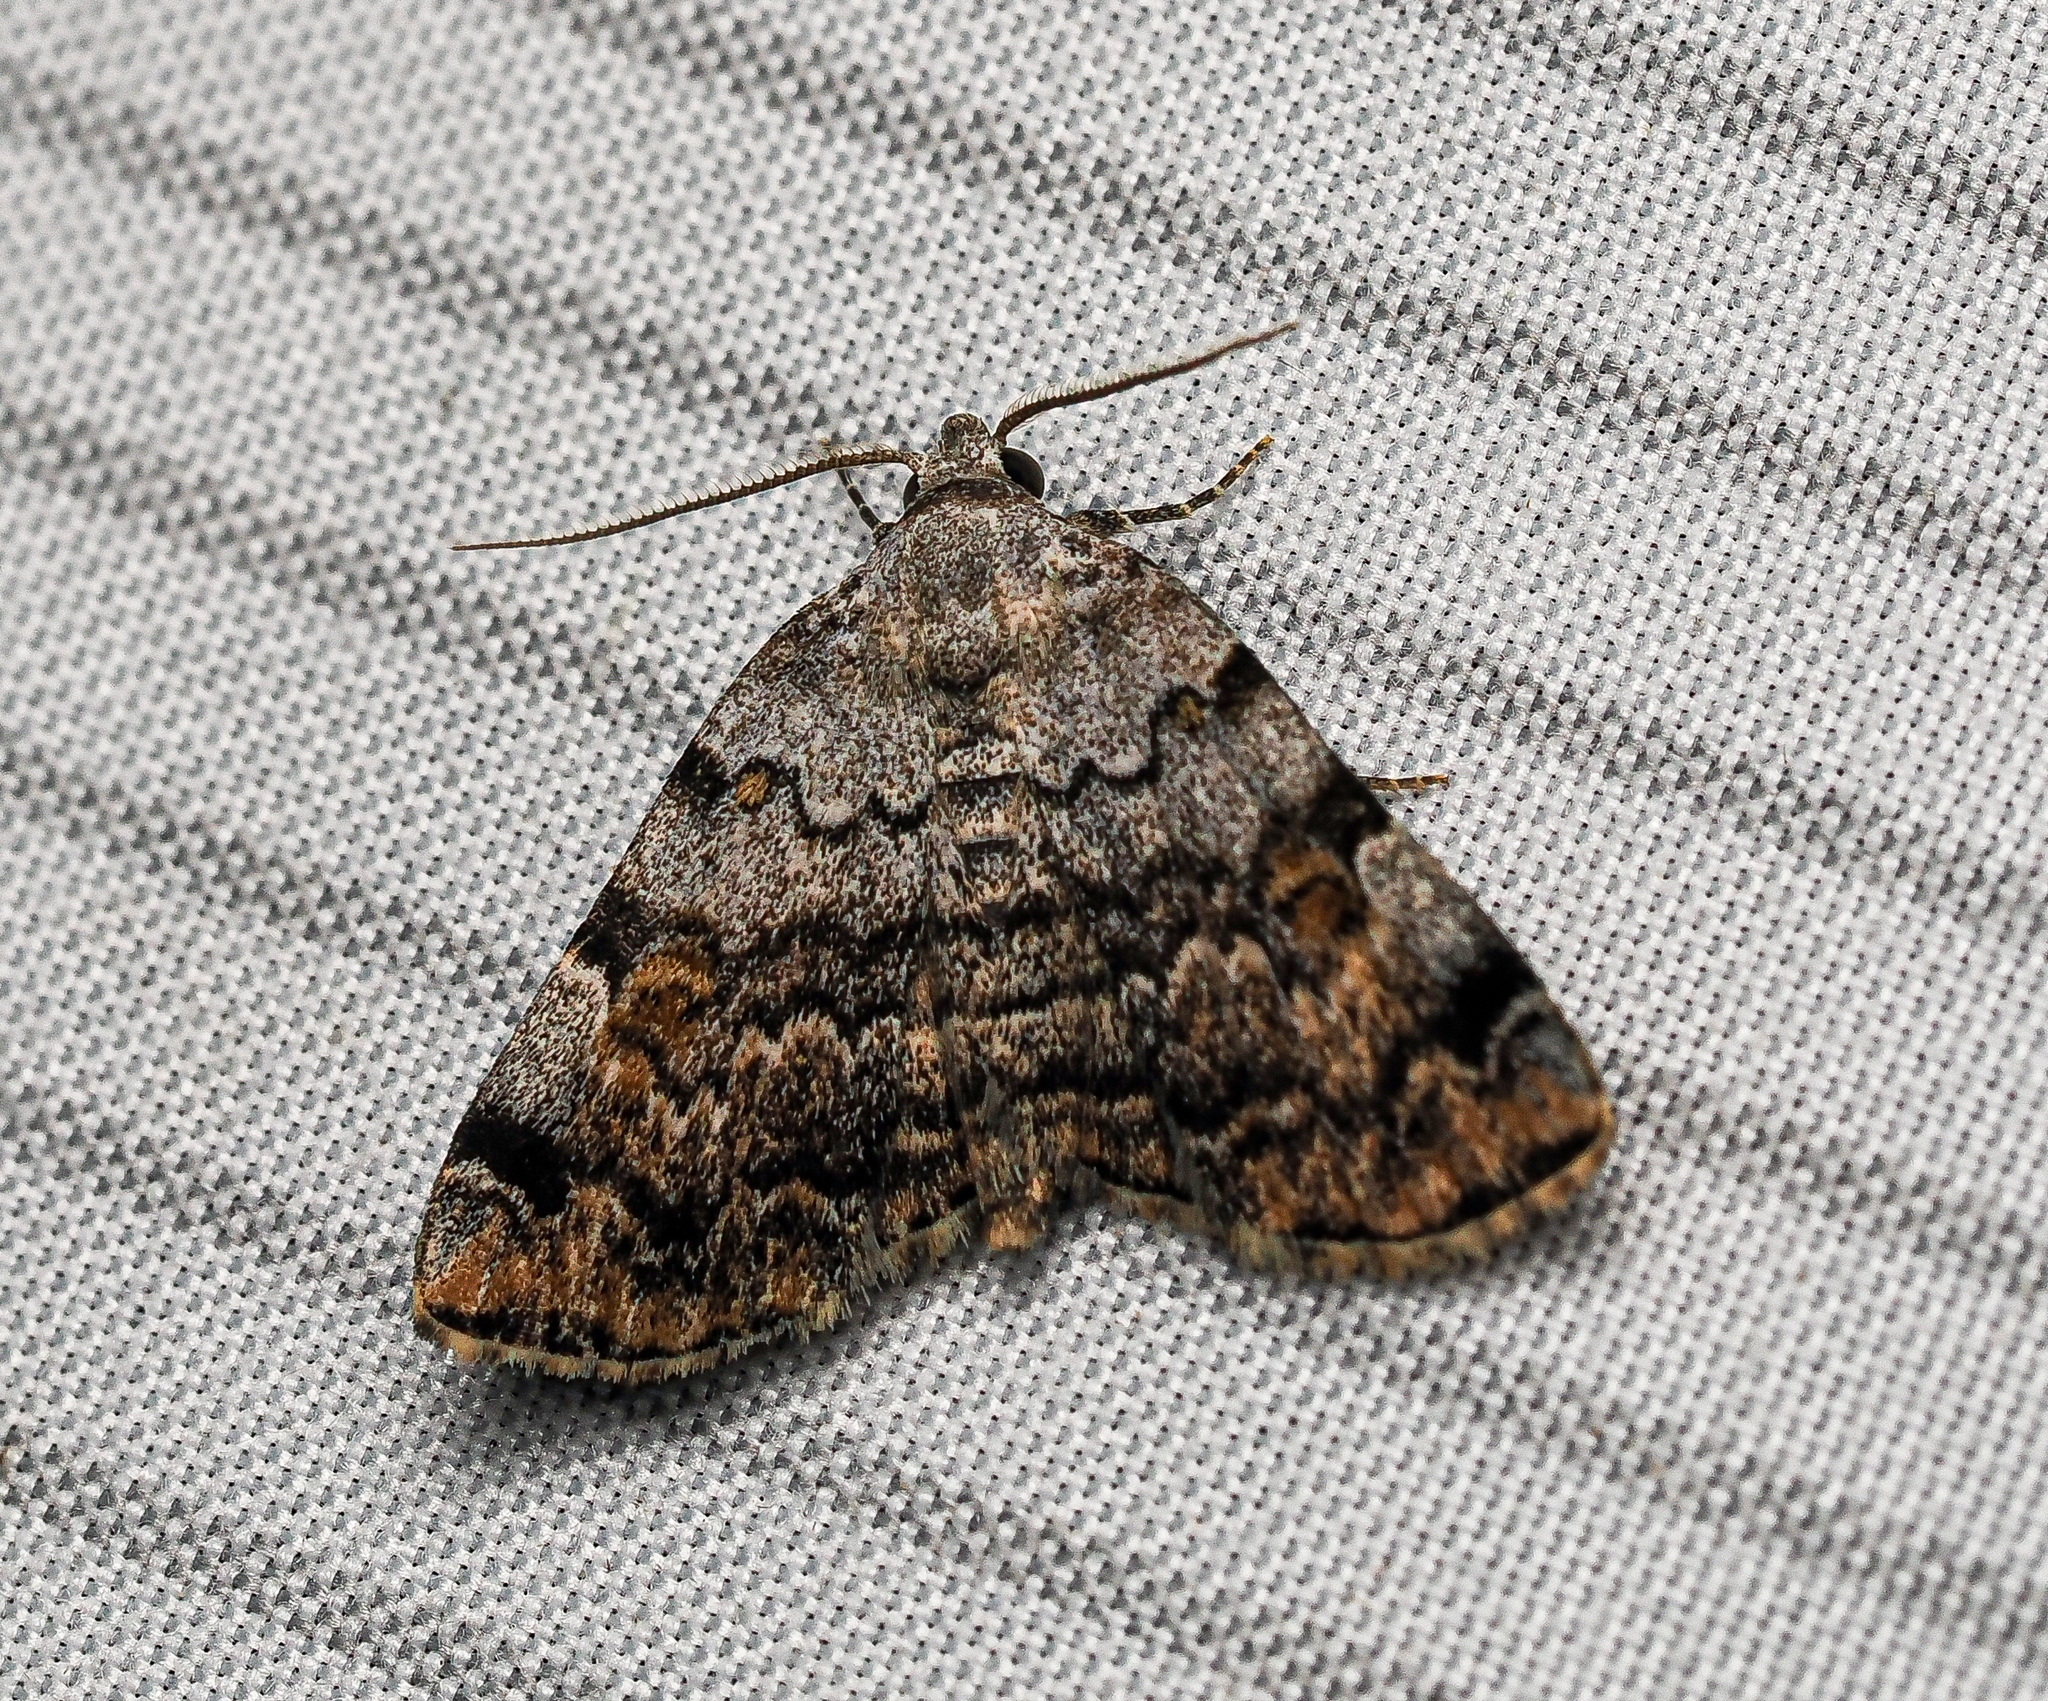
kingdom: Animalia
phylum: Arthropoda
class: Insecta
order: Lepidoptera
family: Erebidae
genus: Idia
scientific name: Idia americalis
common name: American idia moth
